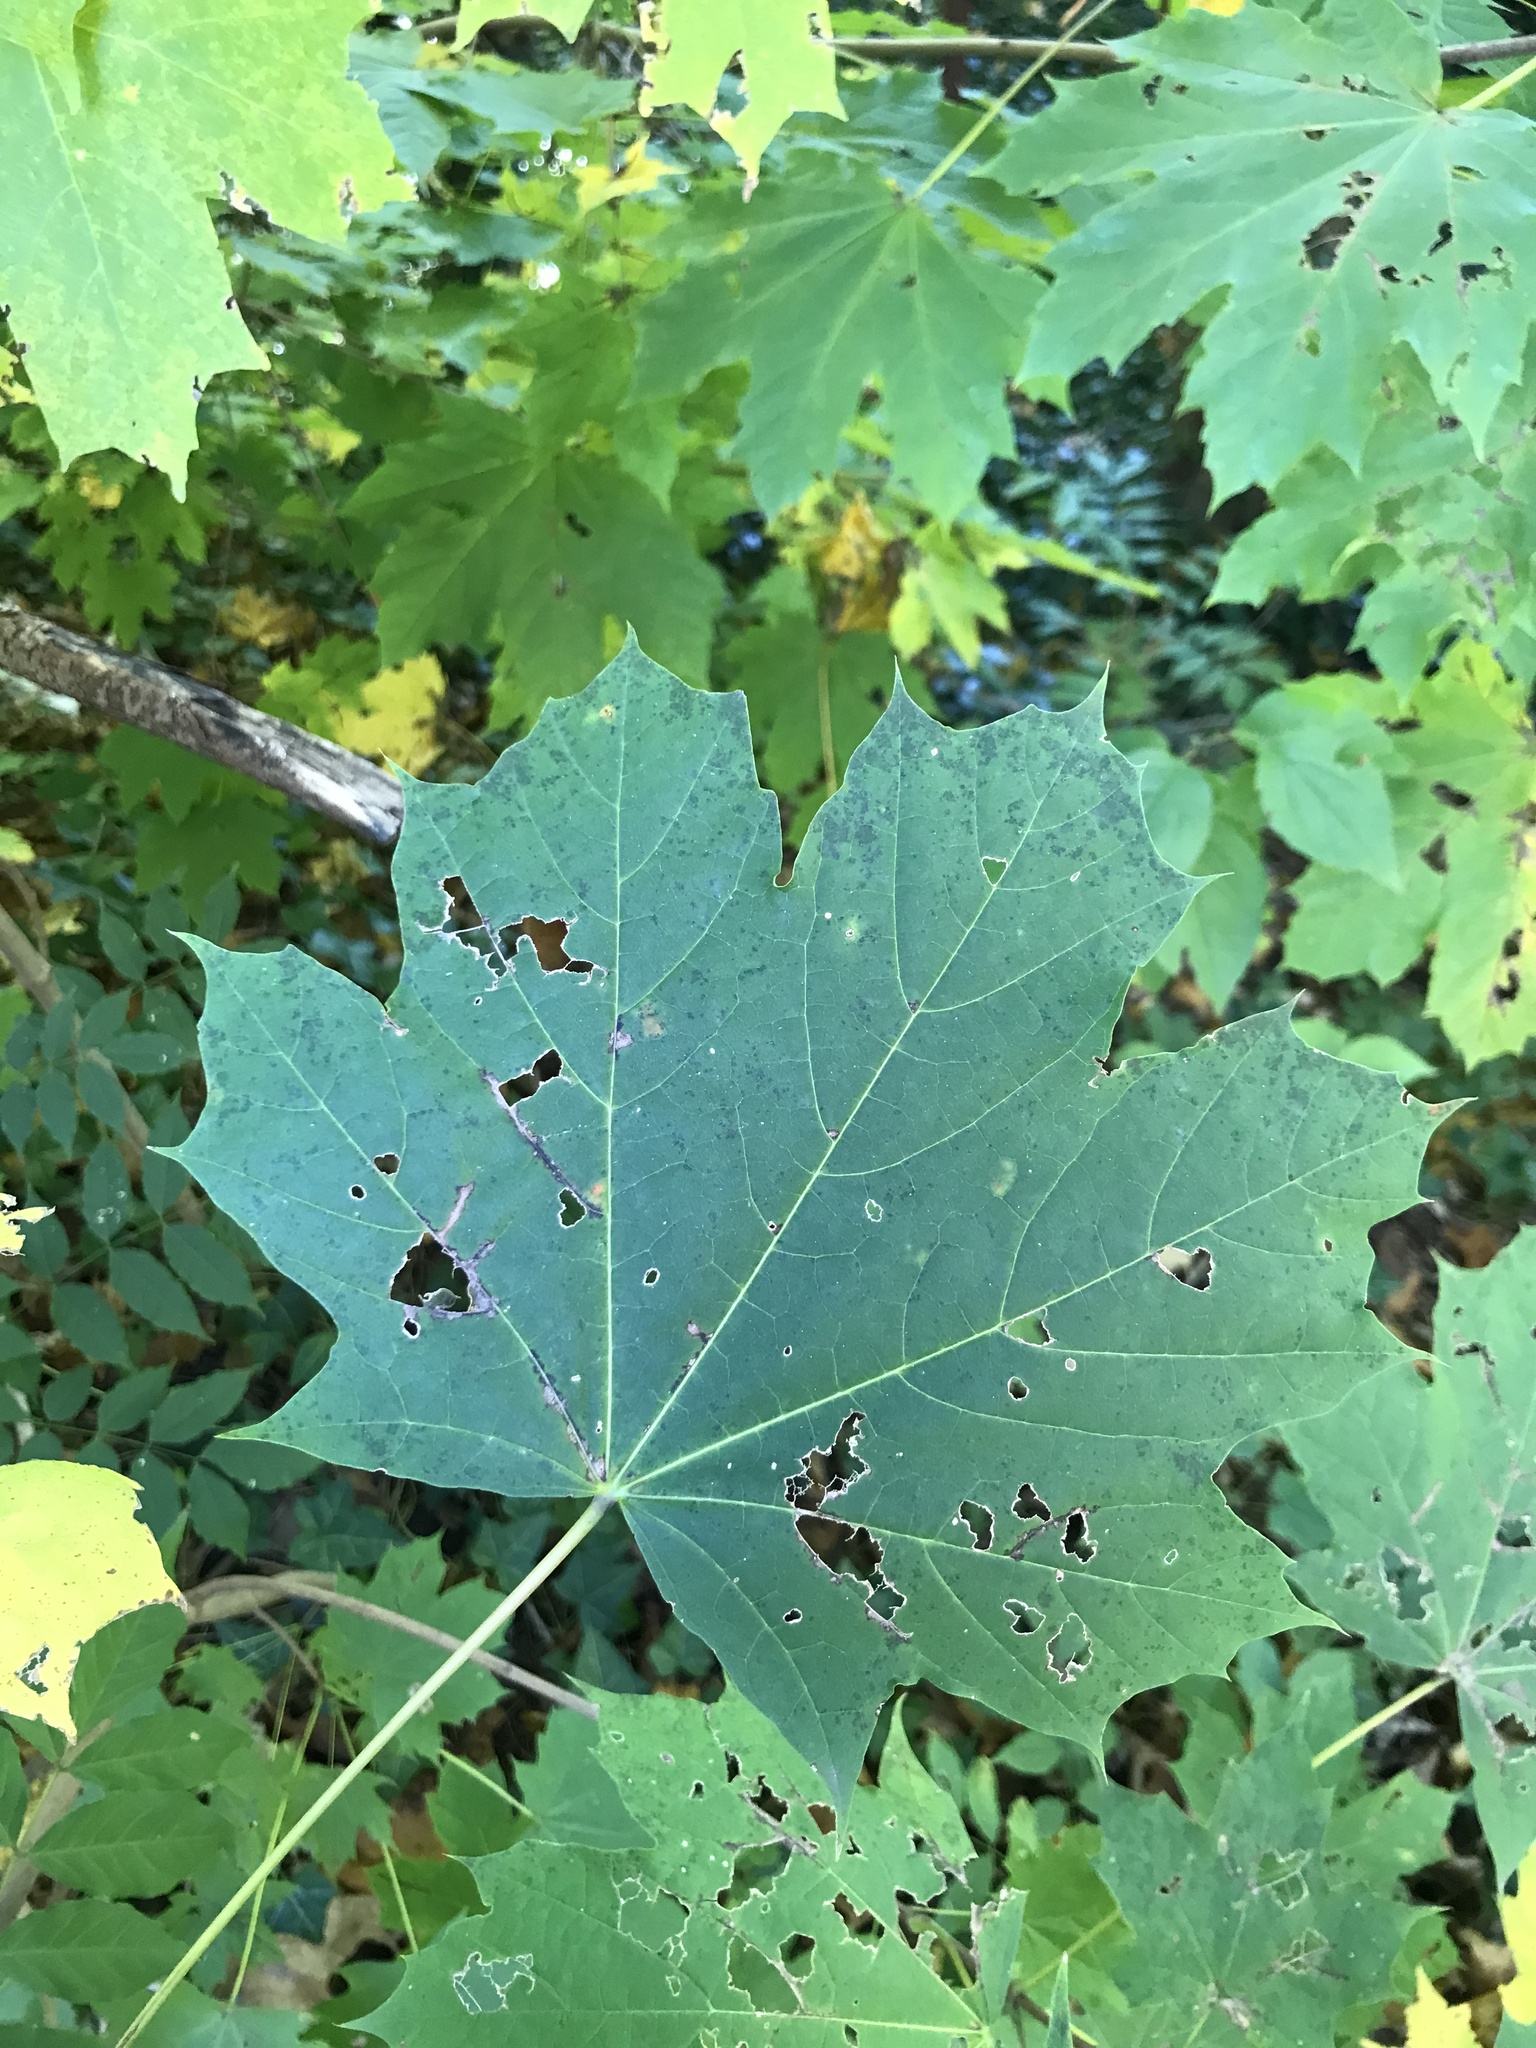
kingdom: Plantae
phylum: Tracheophyta
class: Magnoliopsida
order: Sapindales
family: Sapindaceae
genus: Acer
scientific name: Acer platanoides
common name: Norway maple
